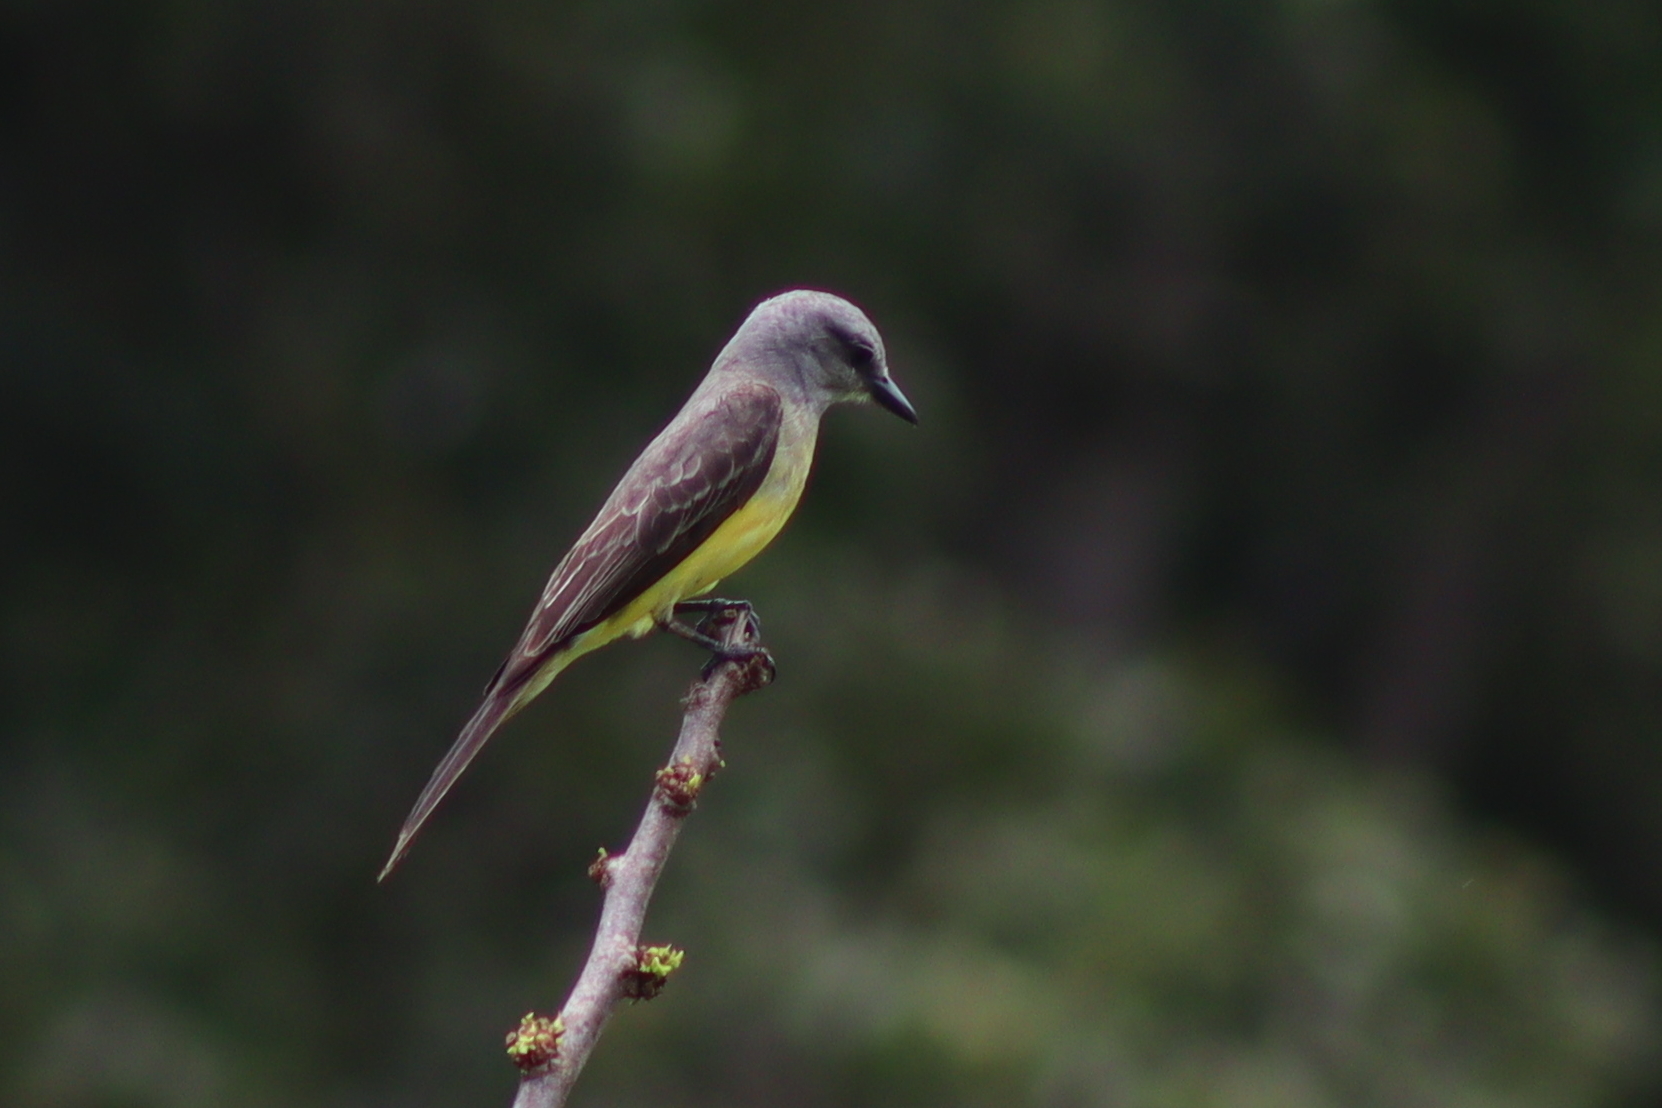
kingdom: Animalia
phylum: Chordata
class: Aves
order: Passeriformes
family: Tyrannidae
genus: Tyrannus
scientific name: Tyrannus melancholicus
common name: Tropical kingbird
